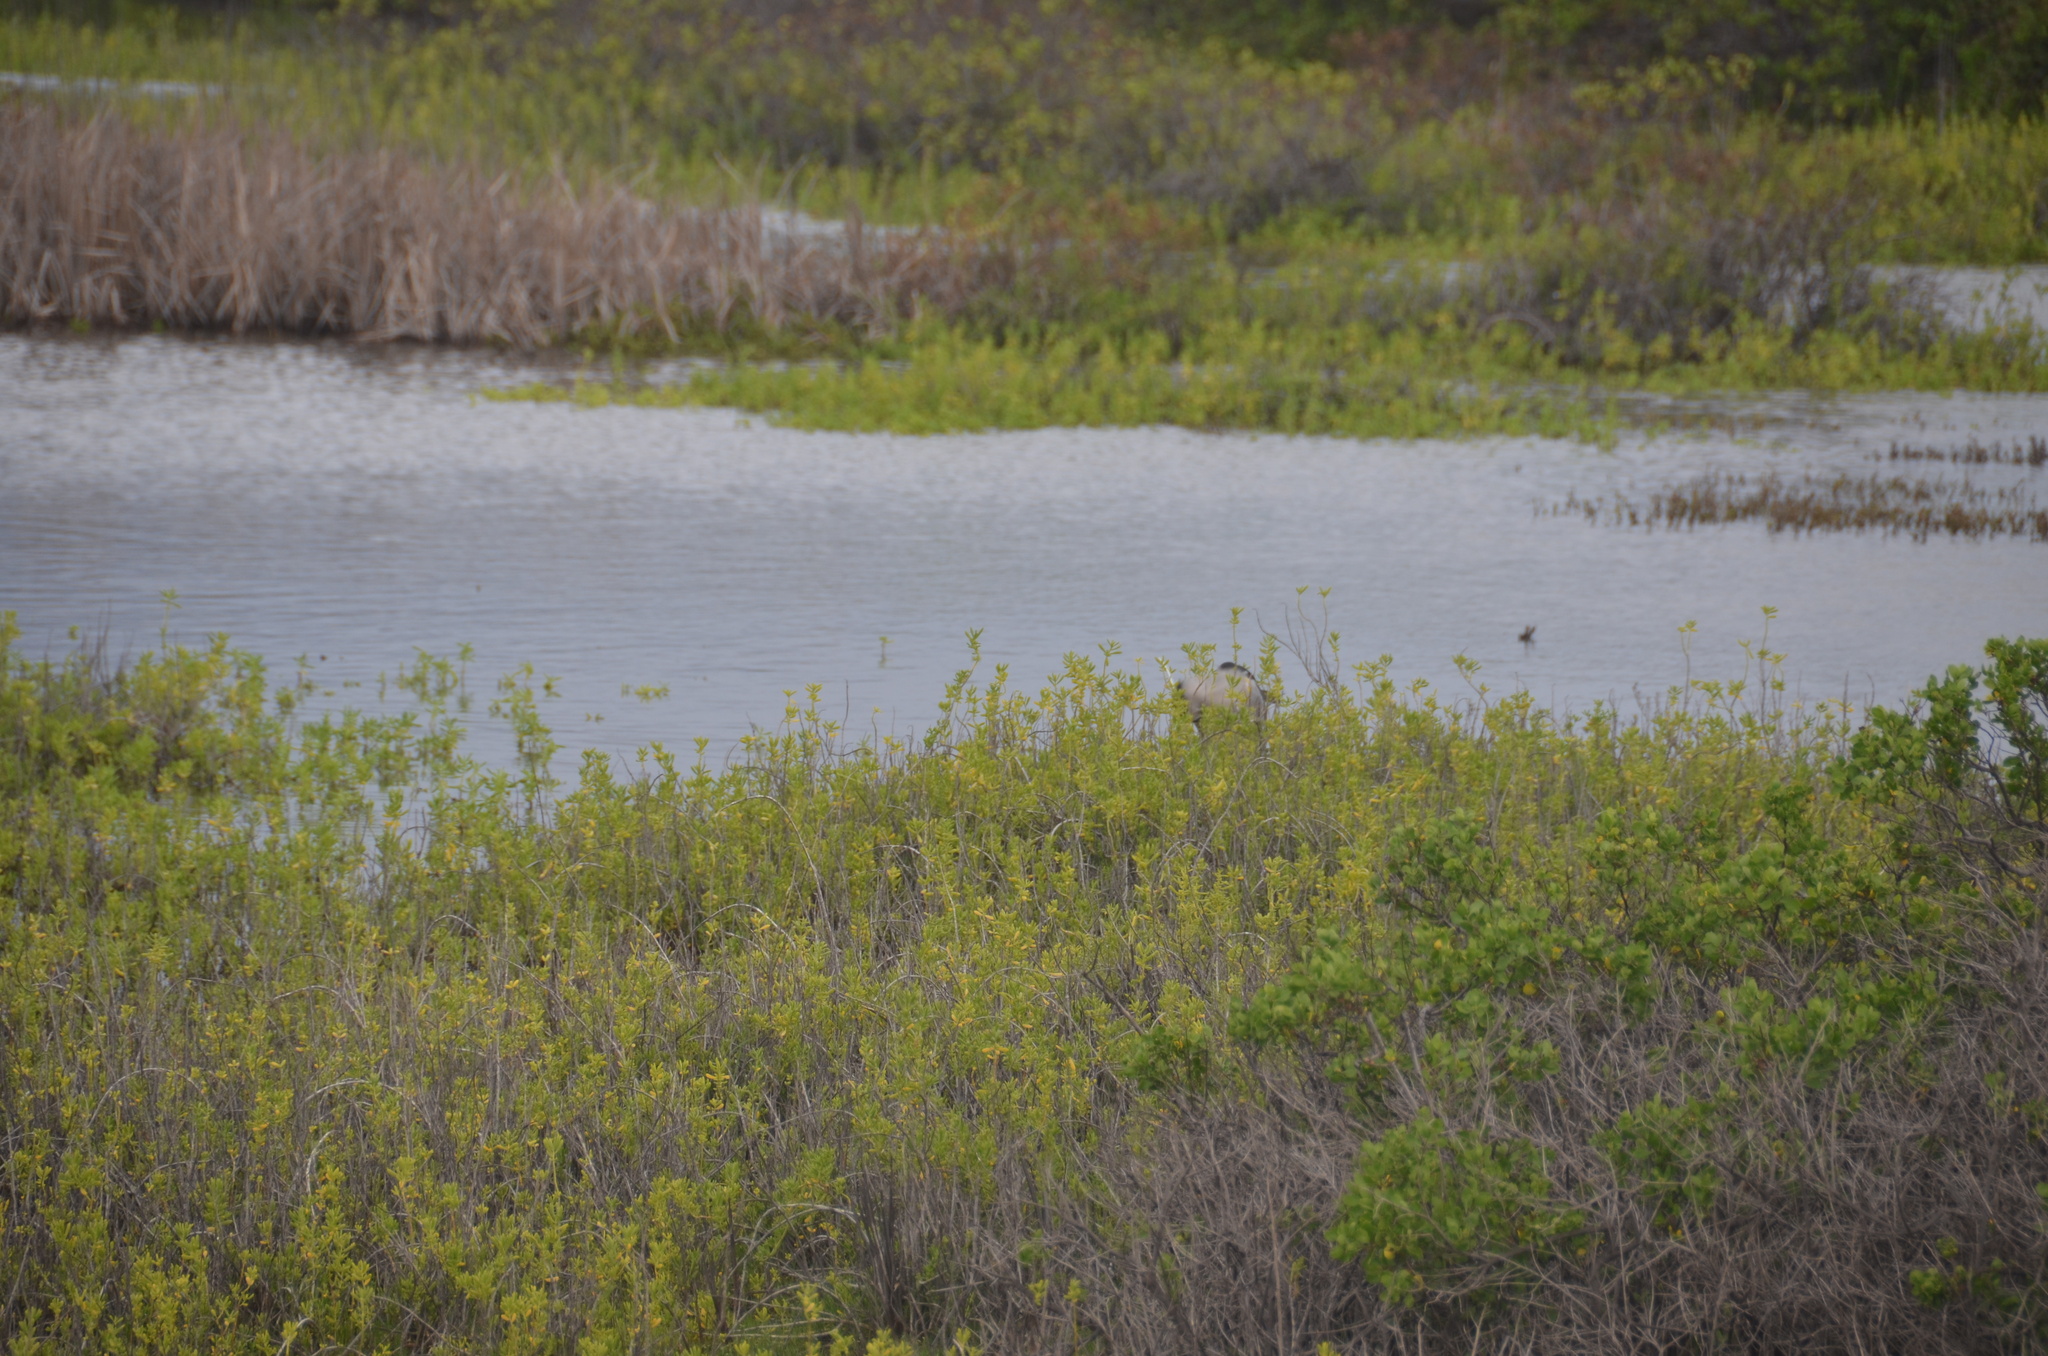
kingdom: Animalia
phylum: Chordata
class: Aves
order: Pelecaniformes
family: Ardeidae
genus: Nycticorax
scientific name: Nycticorax nycticorax
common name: Black-crowned night heron
